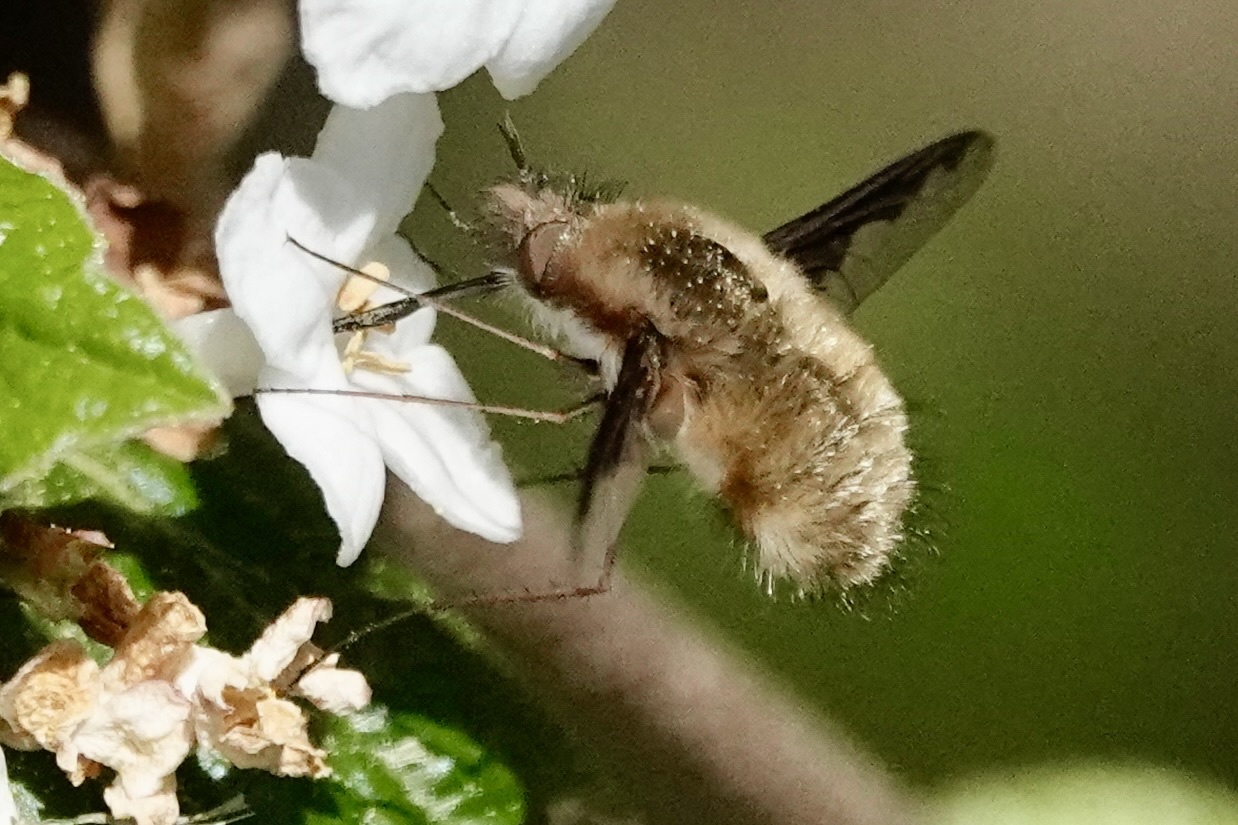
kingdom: Animalia
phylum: Arthropoda
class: Insecta
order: Diptera
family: Bombyliidae
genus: Bombylius
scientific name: Bombylius major
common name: Bee fly
